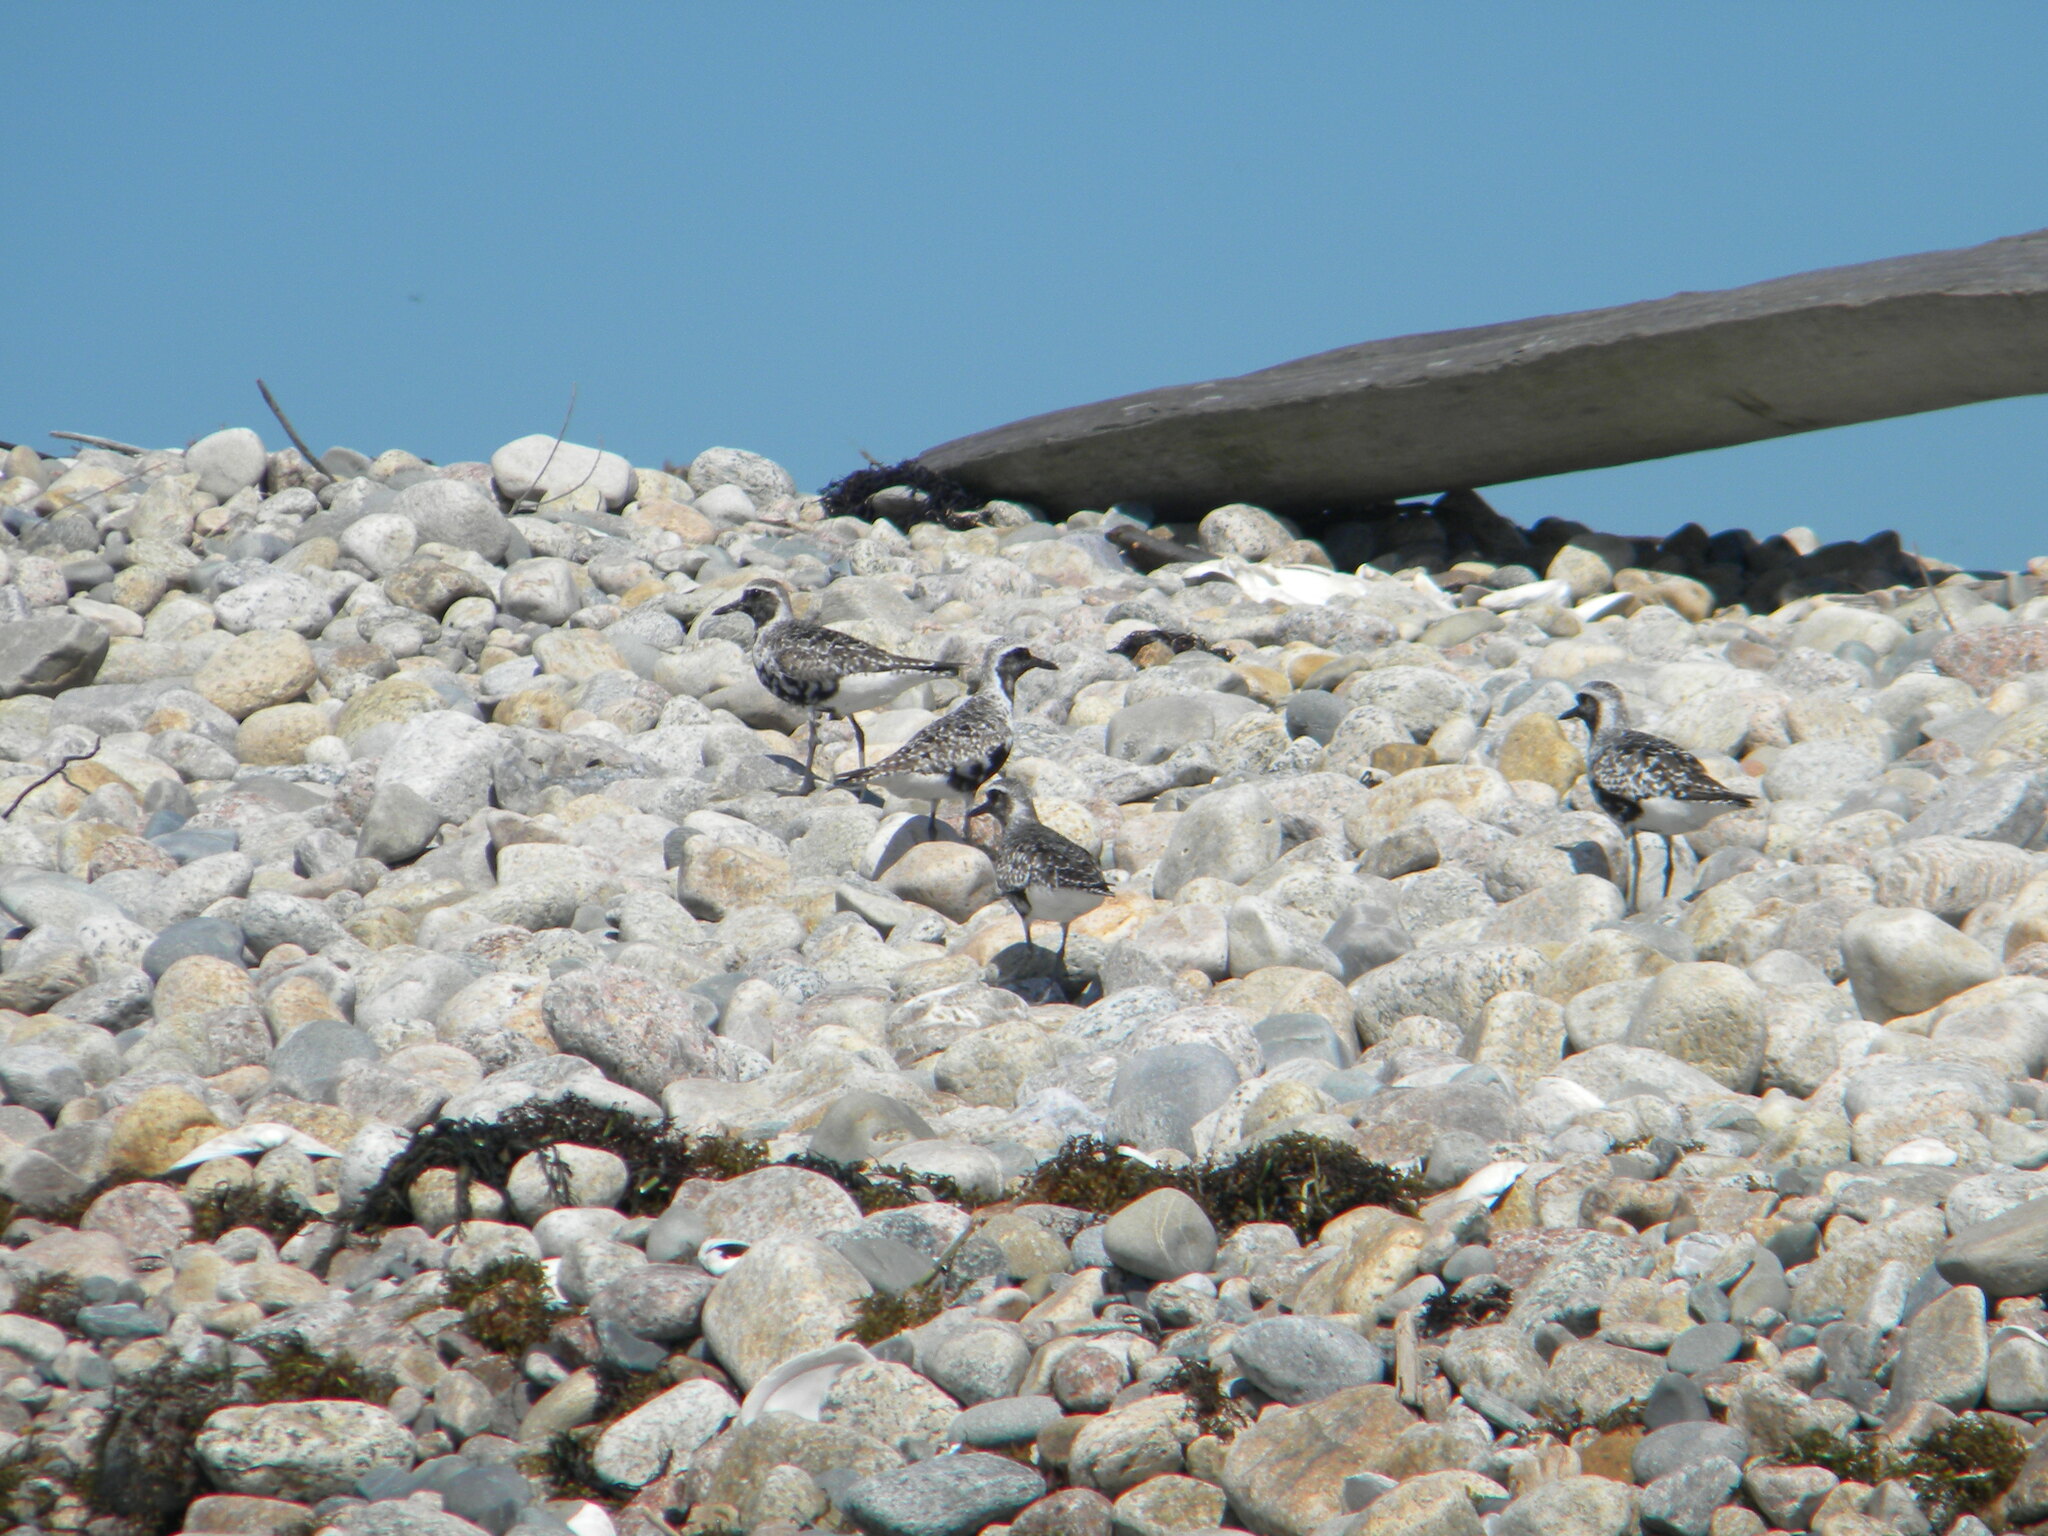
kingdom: Animalia
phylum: Chordata
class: Aves
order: Charadriiformes
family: Charadriidae
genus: Pluvialis
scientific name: Pluvialis squatarola
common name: Grey plover
